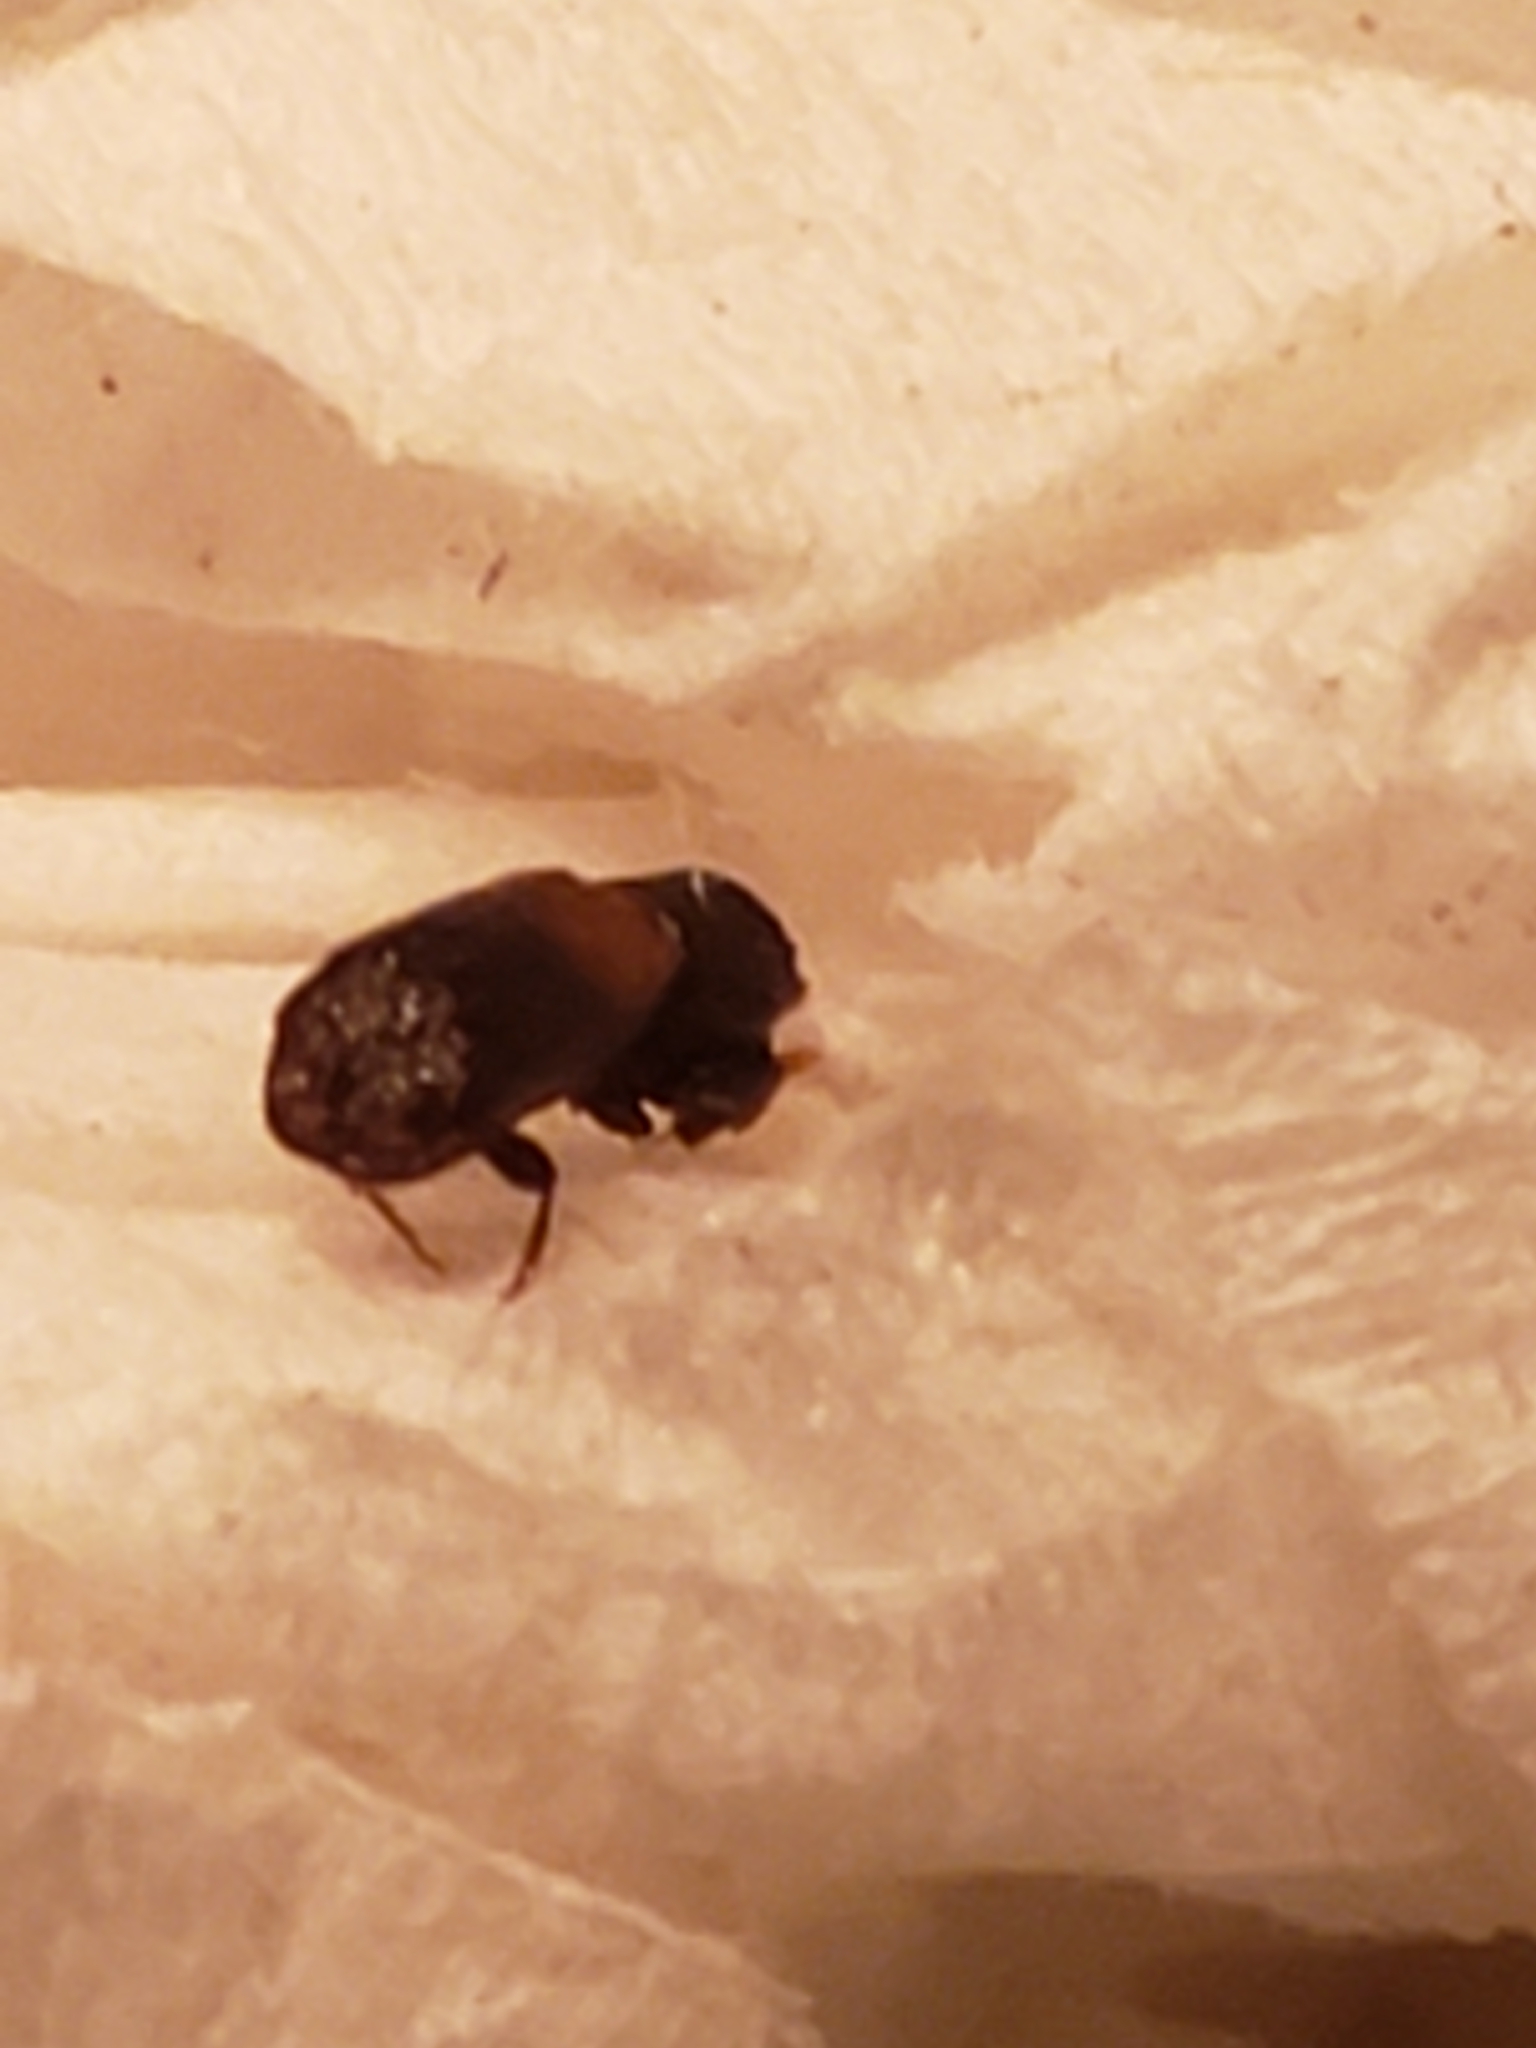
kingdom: Animalia
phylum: Arthropoda
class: Insecta
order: Coleoptera
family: Bostrichidae
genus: Xylobiops
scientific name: Xylobiops basilaris
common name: Red-shouldered bostrichid
